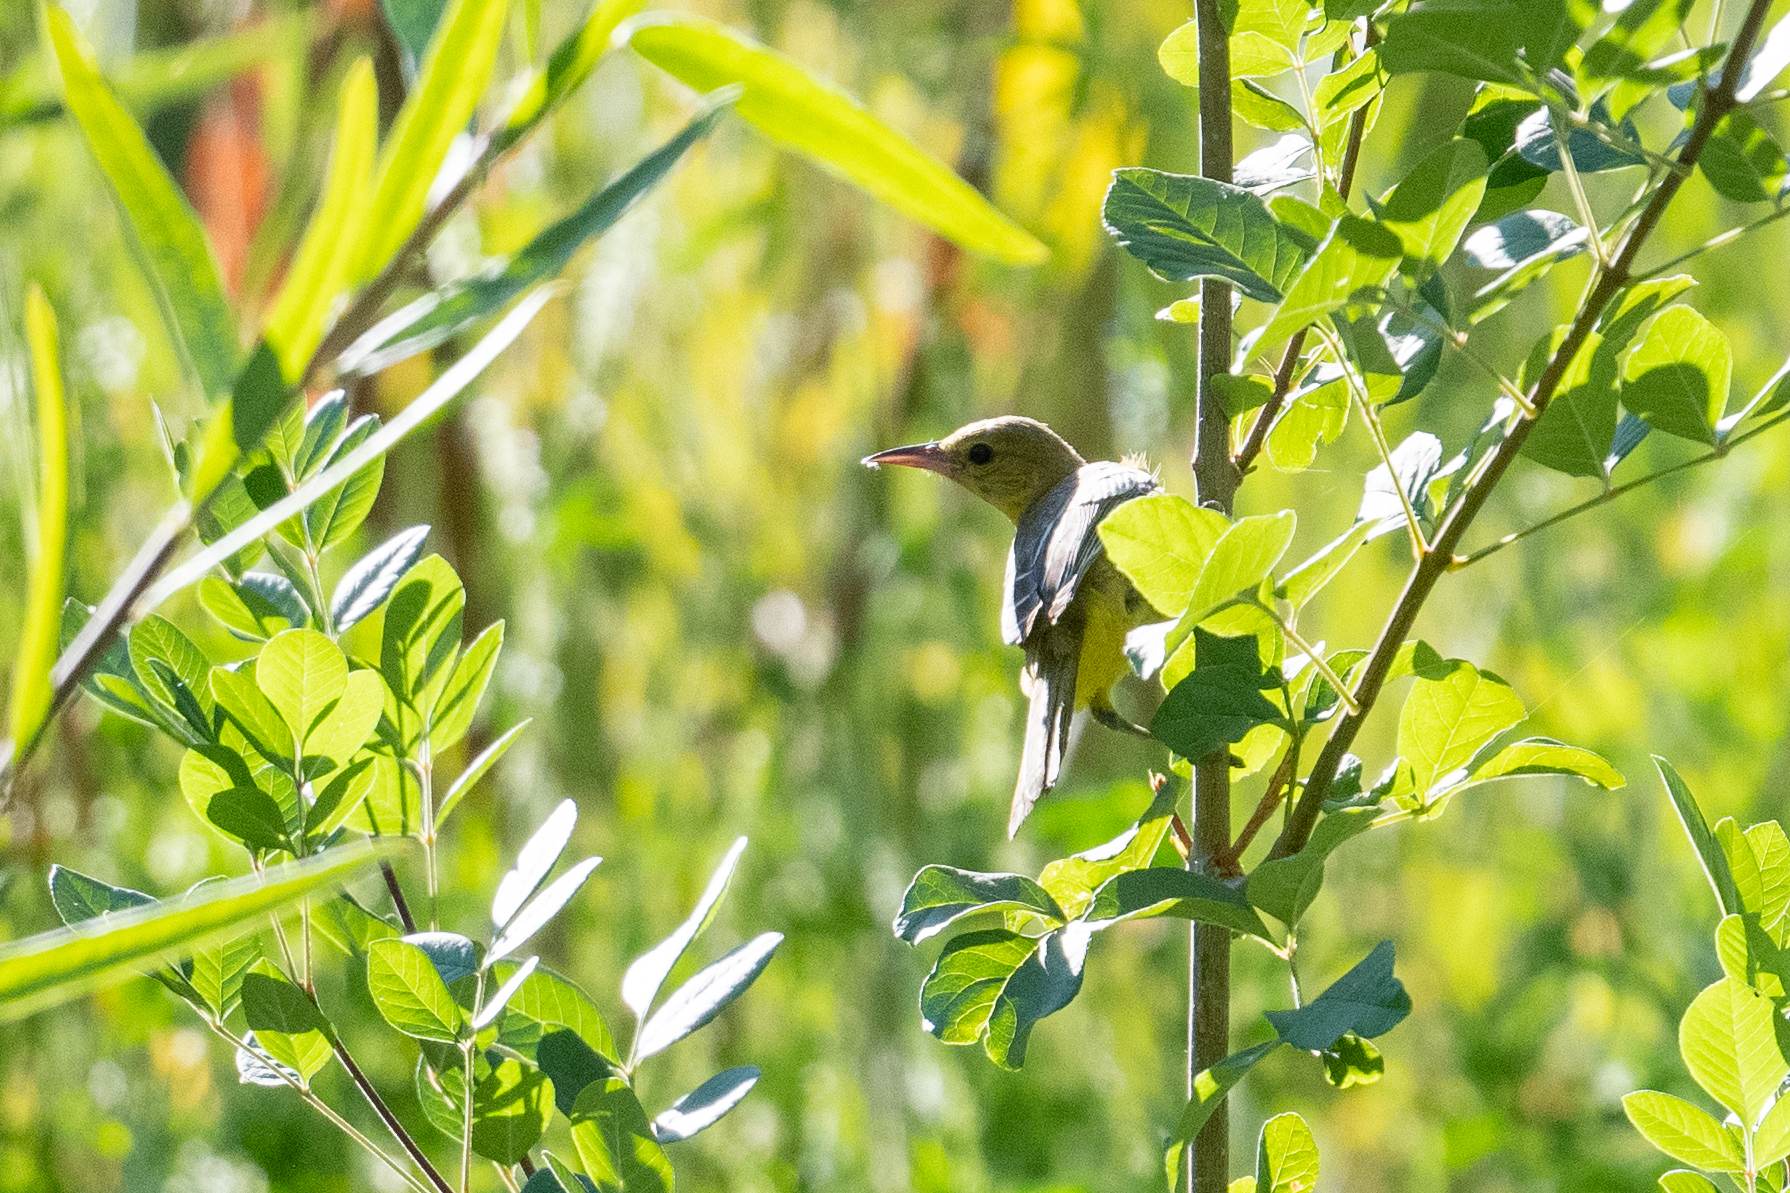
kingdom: Animalia
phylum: Chordata
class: Aves
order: Passeriformes
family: Icteridae
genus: Icterus
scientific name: Icterus cucullatus
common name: Hooded oriole
